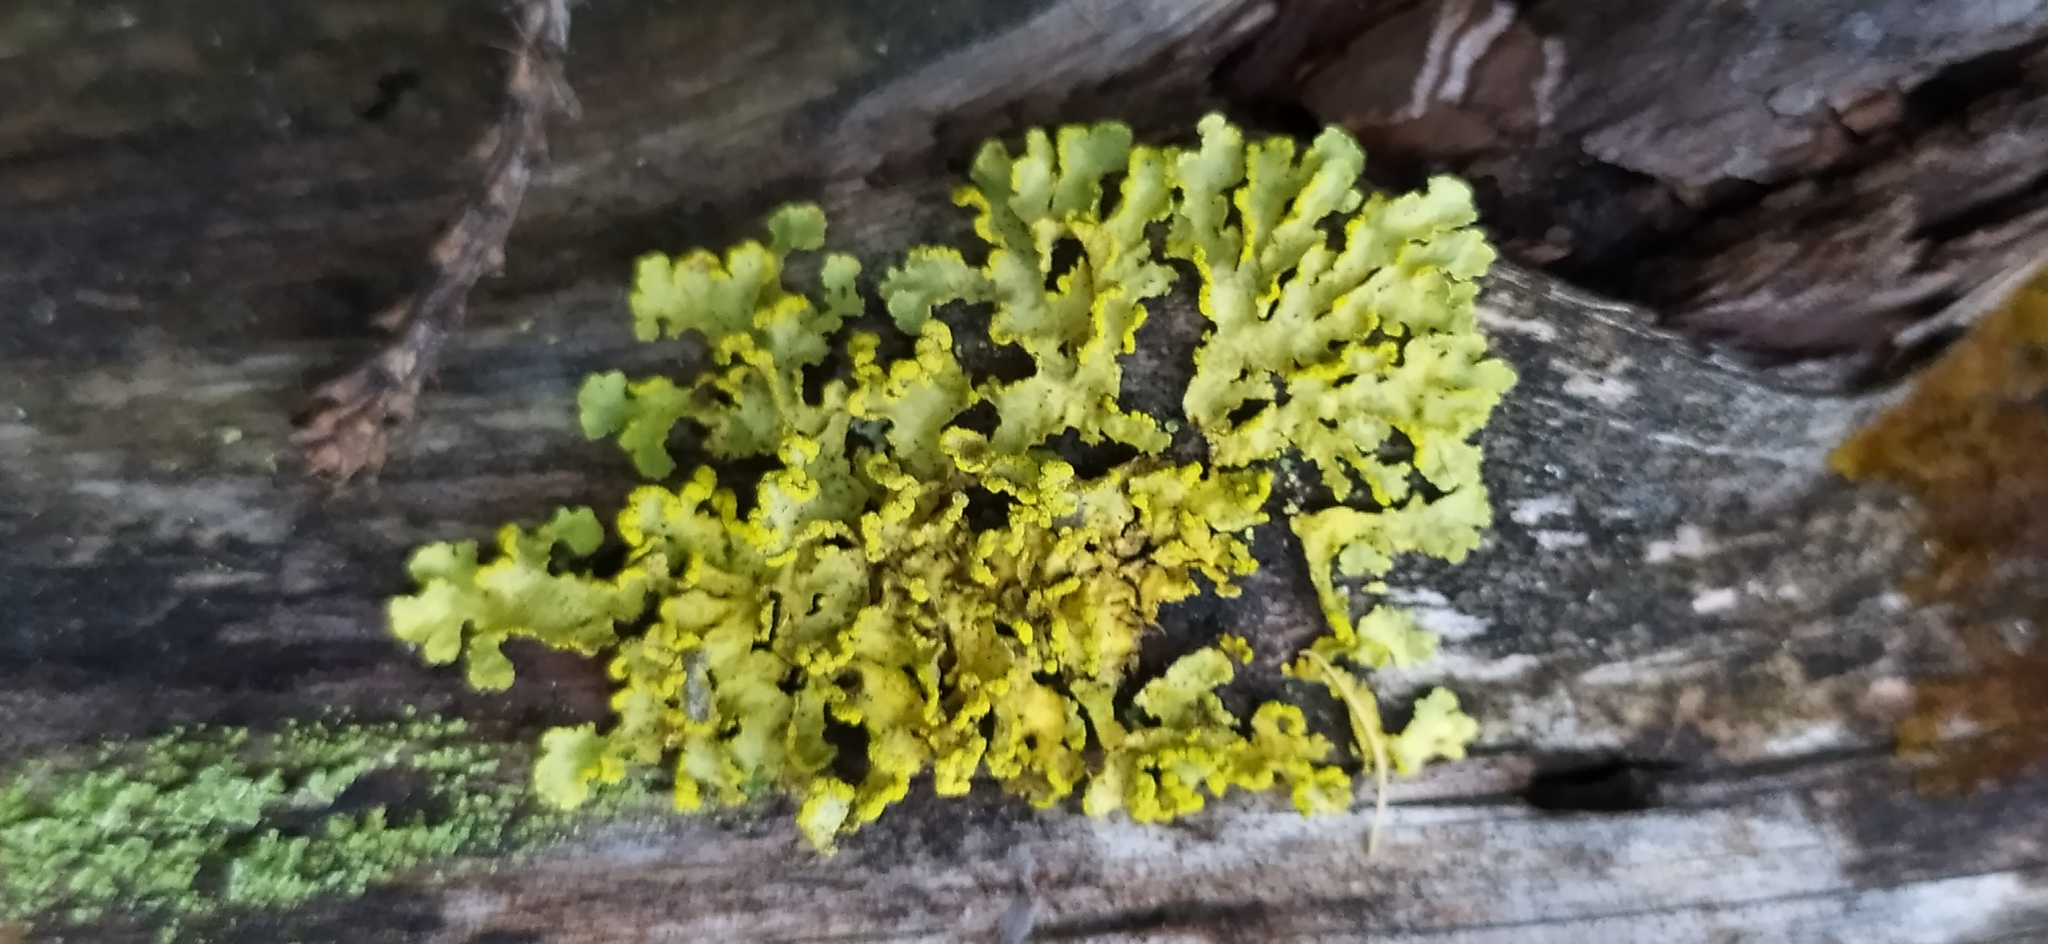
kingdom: Fungi
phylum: Ascomycota
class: Lecanoromycetes
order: Lecanorales
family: Parmeliaceae
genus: Vulpicida
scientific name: Vulpicida pinastri
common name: Powdered sunshine lichen
